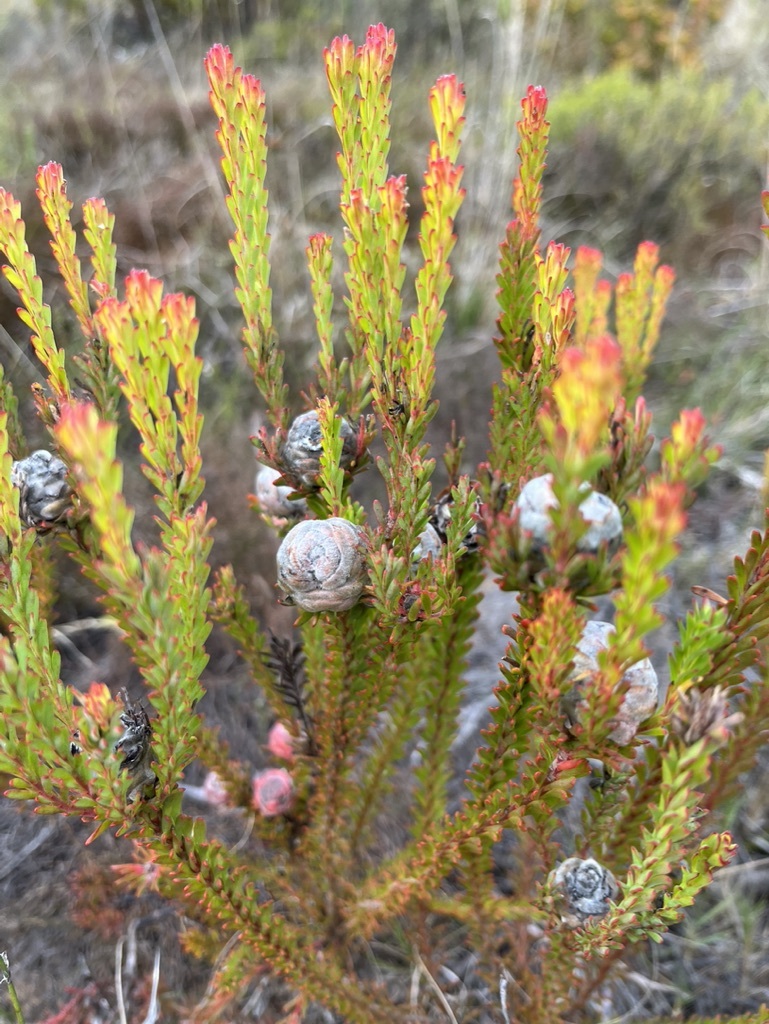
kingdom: Plantae
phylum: Tracheophyta
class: Magnoliopsida
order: Proteales
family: Proteaceae
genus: Leucadendron
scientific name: Leucadendron linifolium
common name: Line-leaf conebush
